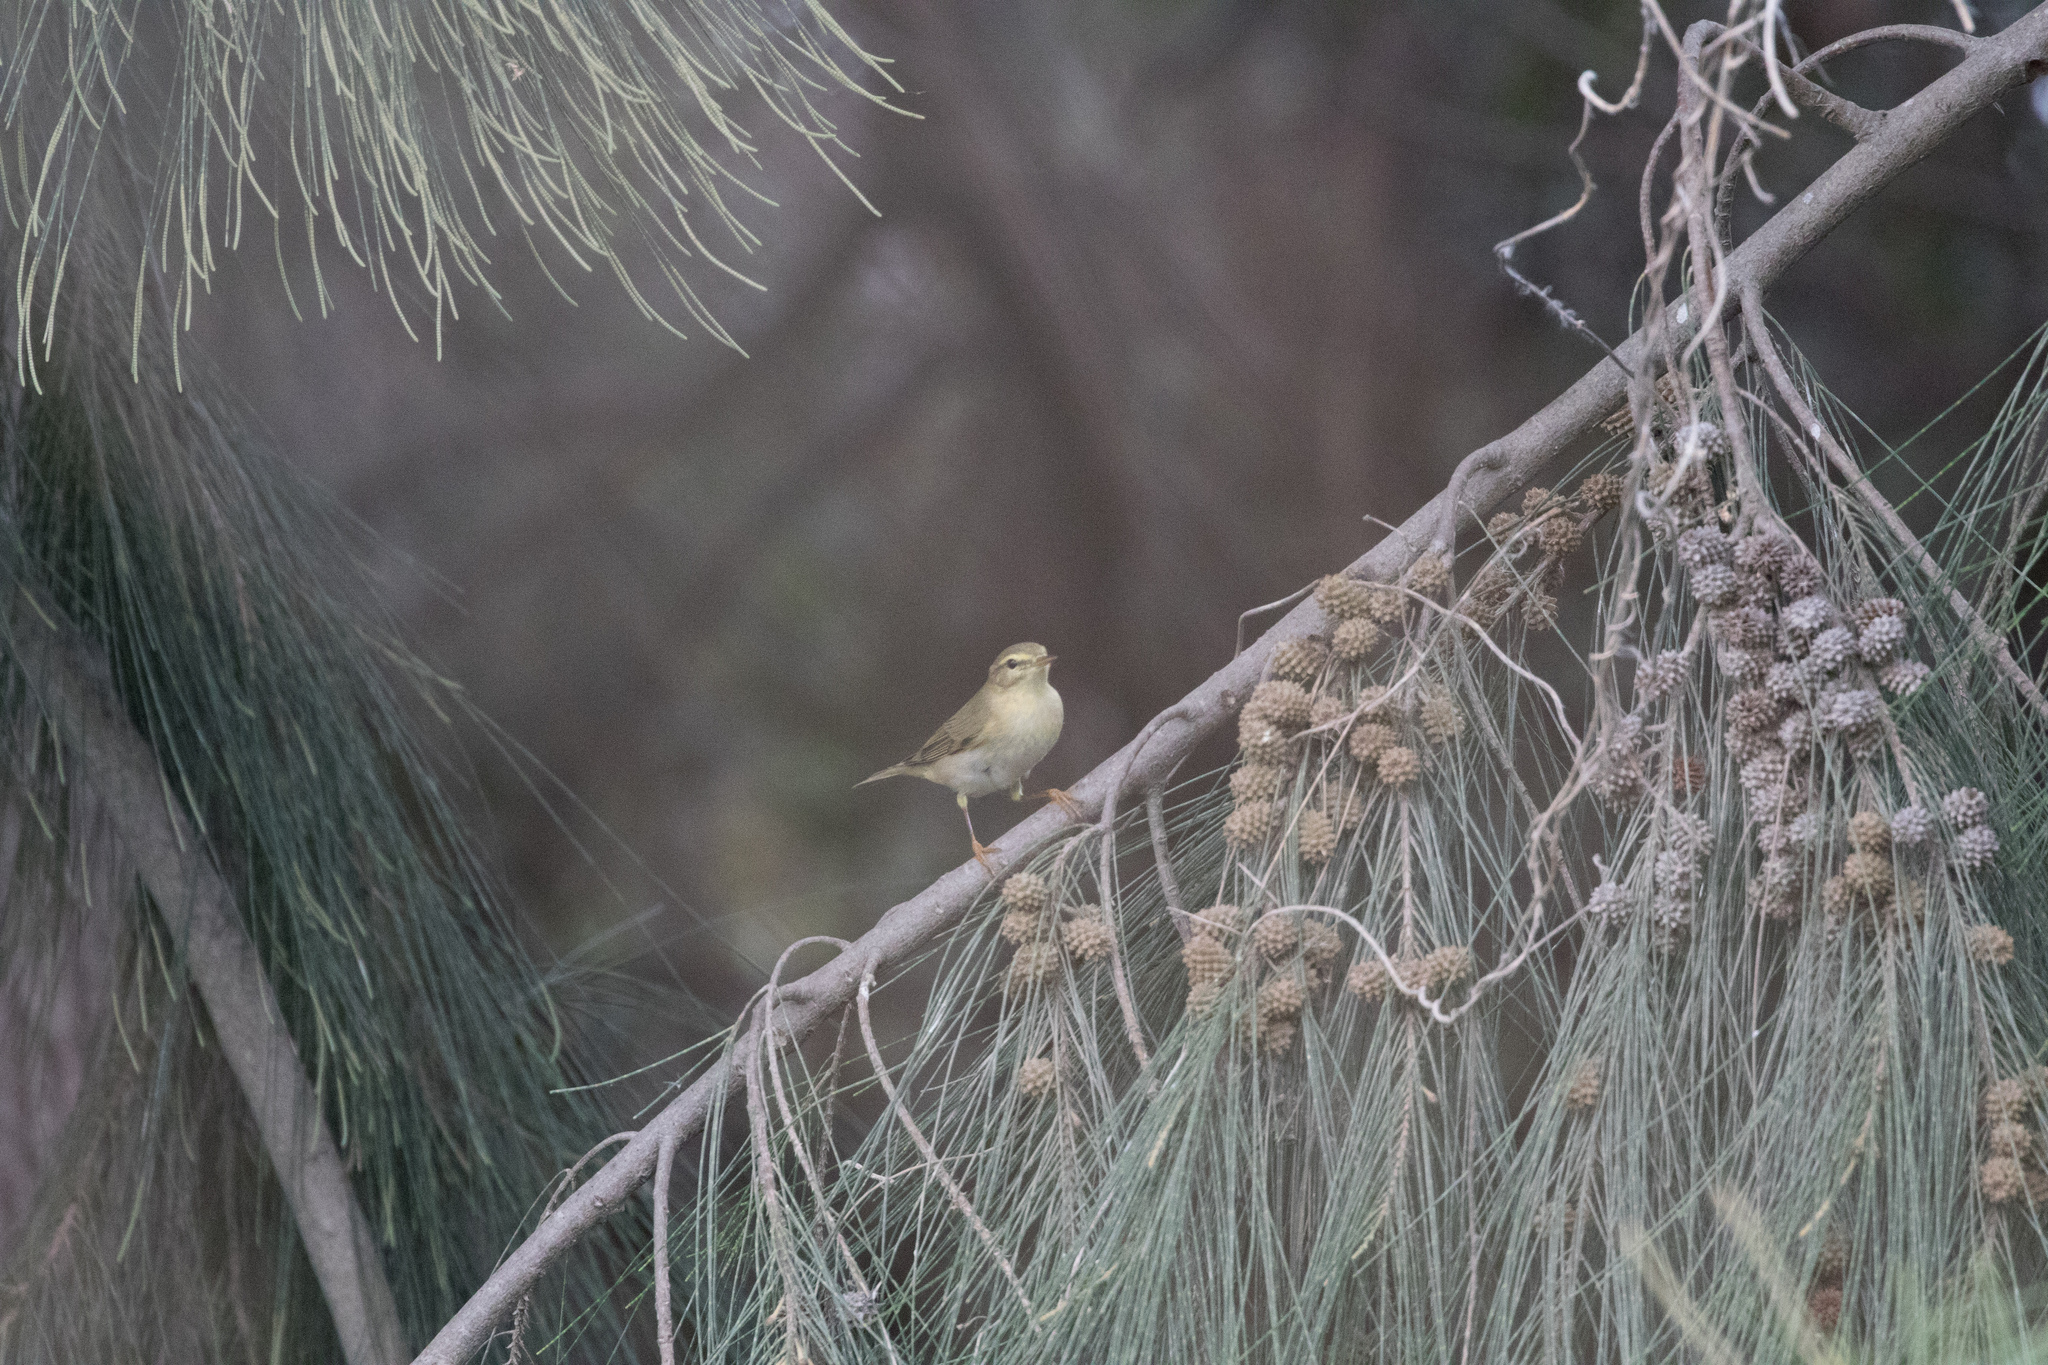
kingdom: Animalia
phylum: Chordata
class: Aves
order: Passeriformes
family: Phylloscopidae
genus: Phylloscopus
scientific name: Phylloscopus trochilus
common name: Willow warbler
